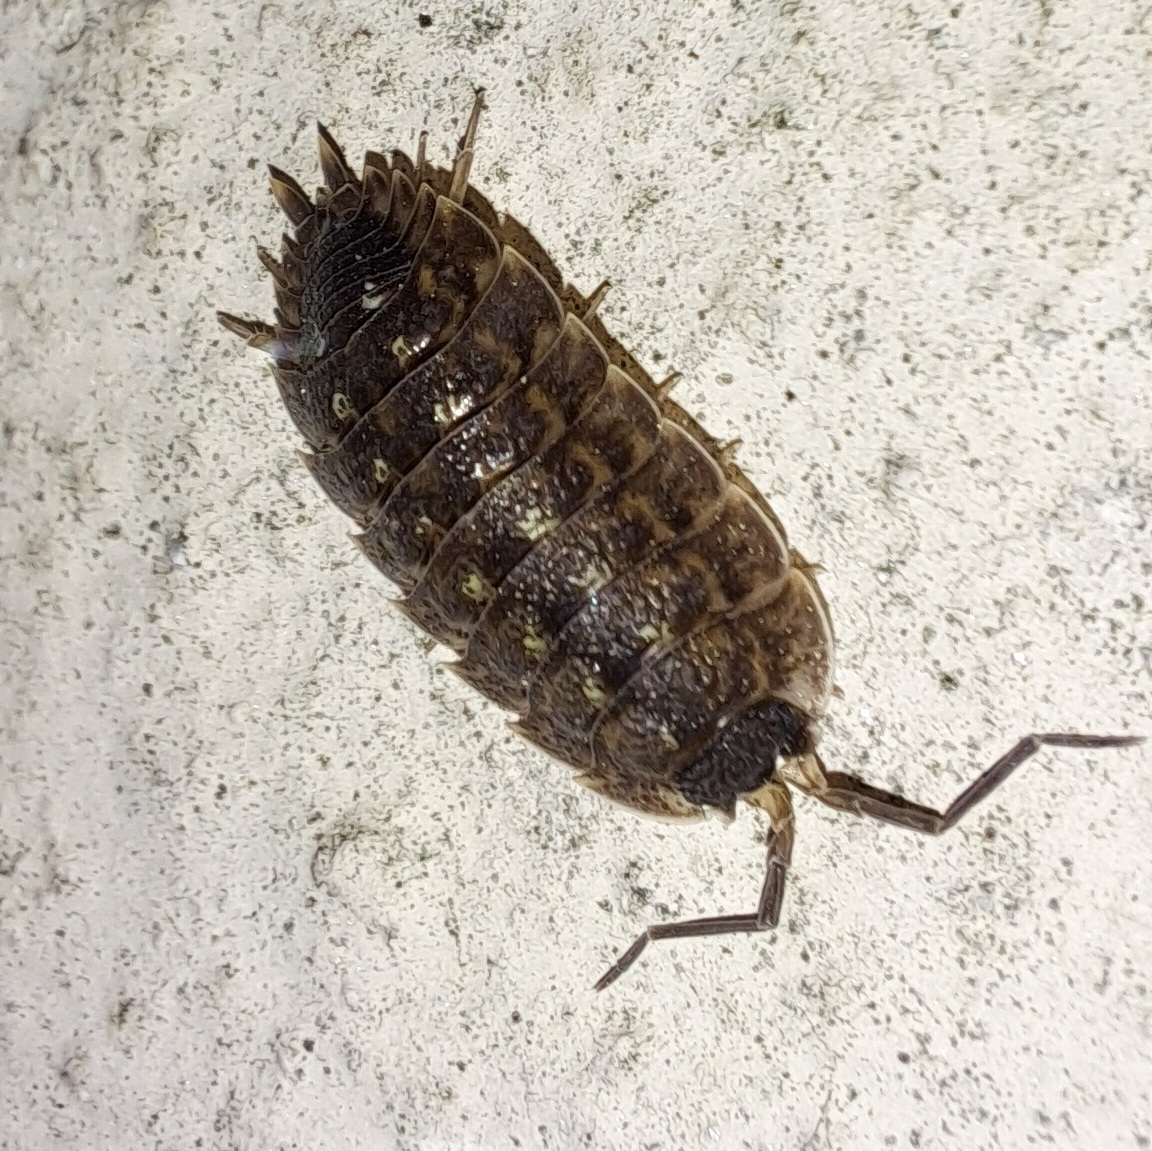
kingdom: Animalia
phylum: Arthropoda
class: Malacostraca
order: Isopoda
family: Porcellionidae
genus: Porcellio
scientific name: Porcellio spinicornis
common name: Painted woodlouse
